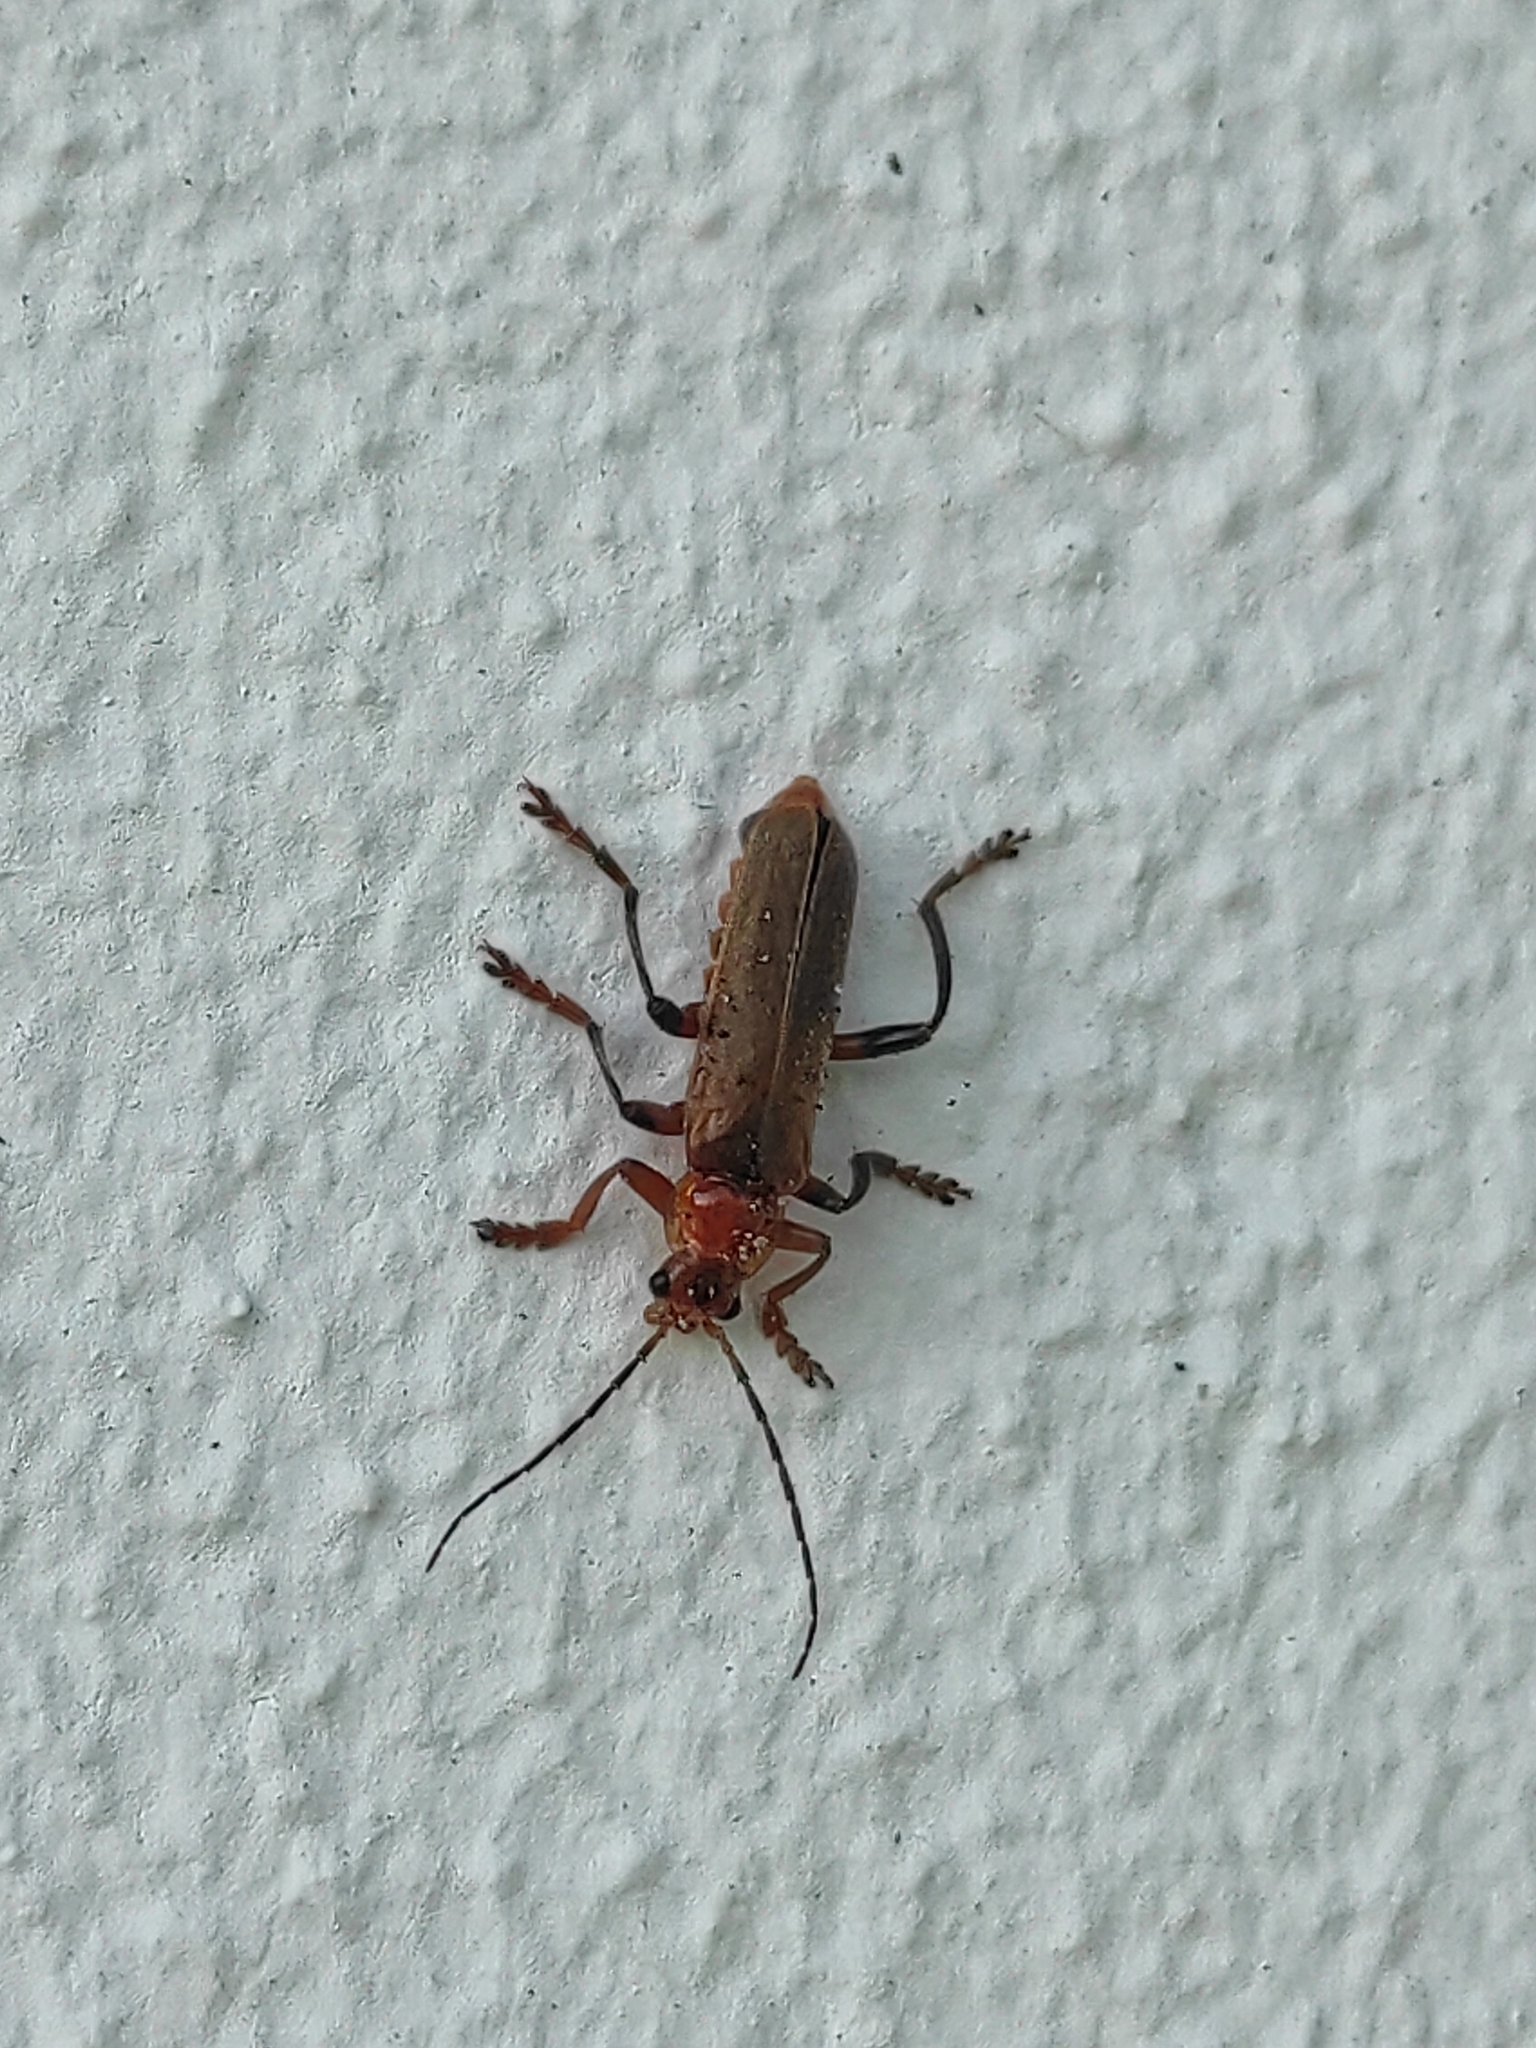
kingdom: Animalia
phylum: Arthropoda
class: Insecta
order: Coleoptera
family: Cantharidae
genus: Cantharis
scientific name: Cantharis livida
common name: Livid soldier beetle
